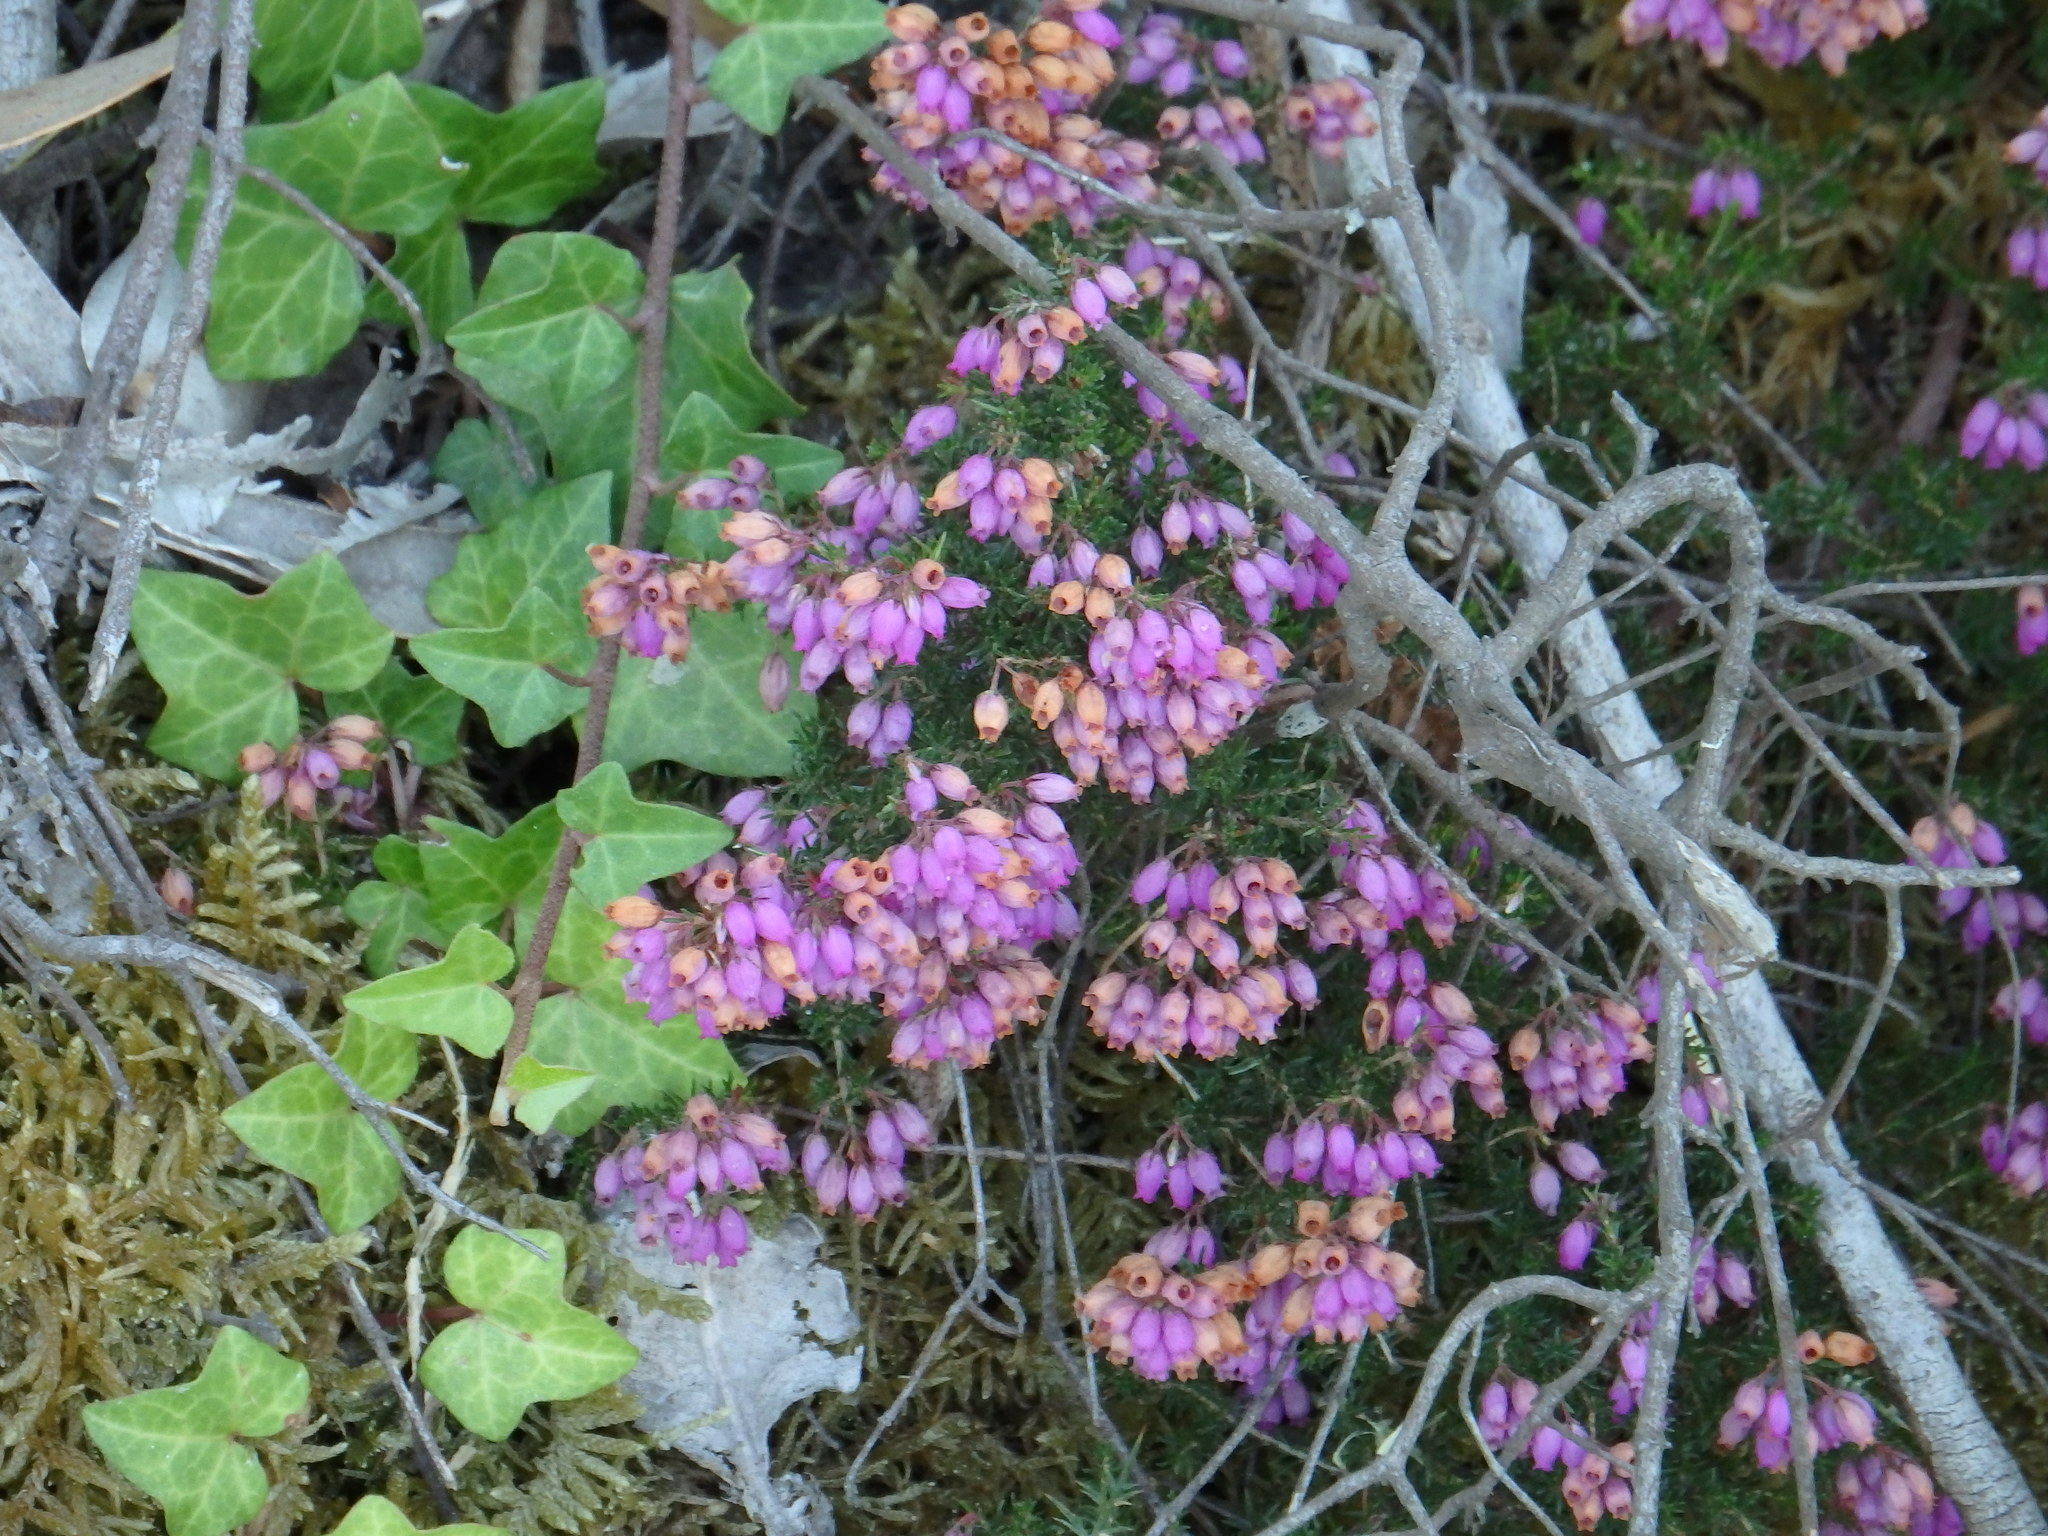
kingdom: Plantae
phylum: Tracheophyta
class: Magnoliopsida
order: Ericales
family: Ericaceae
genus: Erica
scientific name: Erica cinerea
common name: Bell heather
